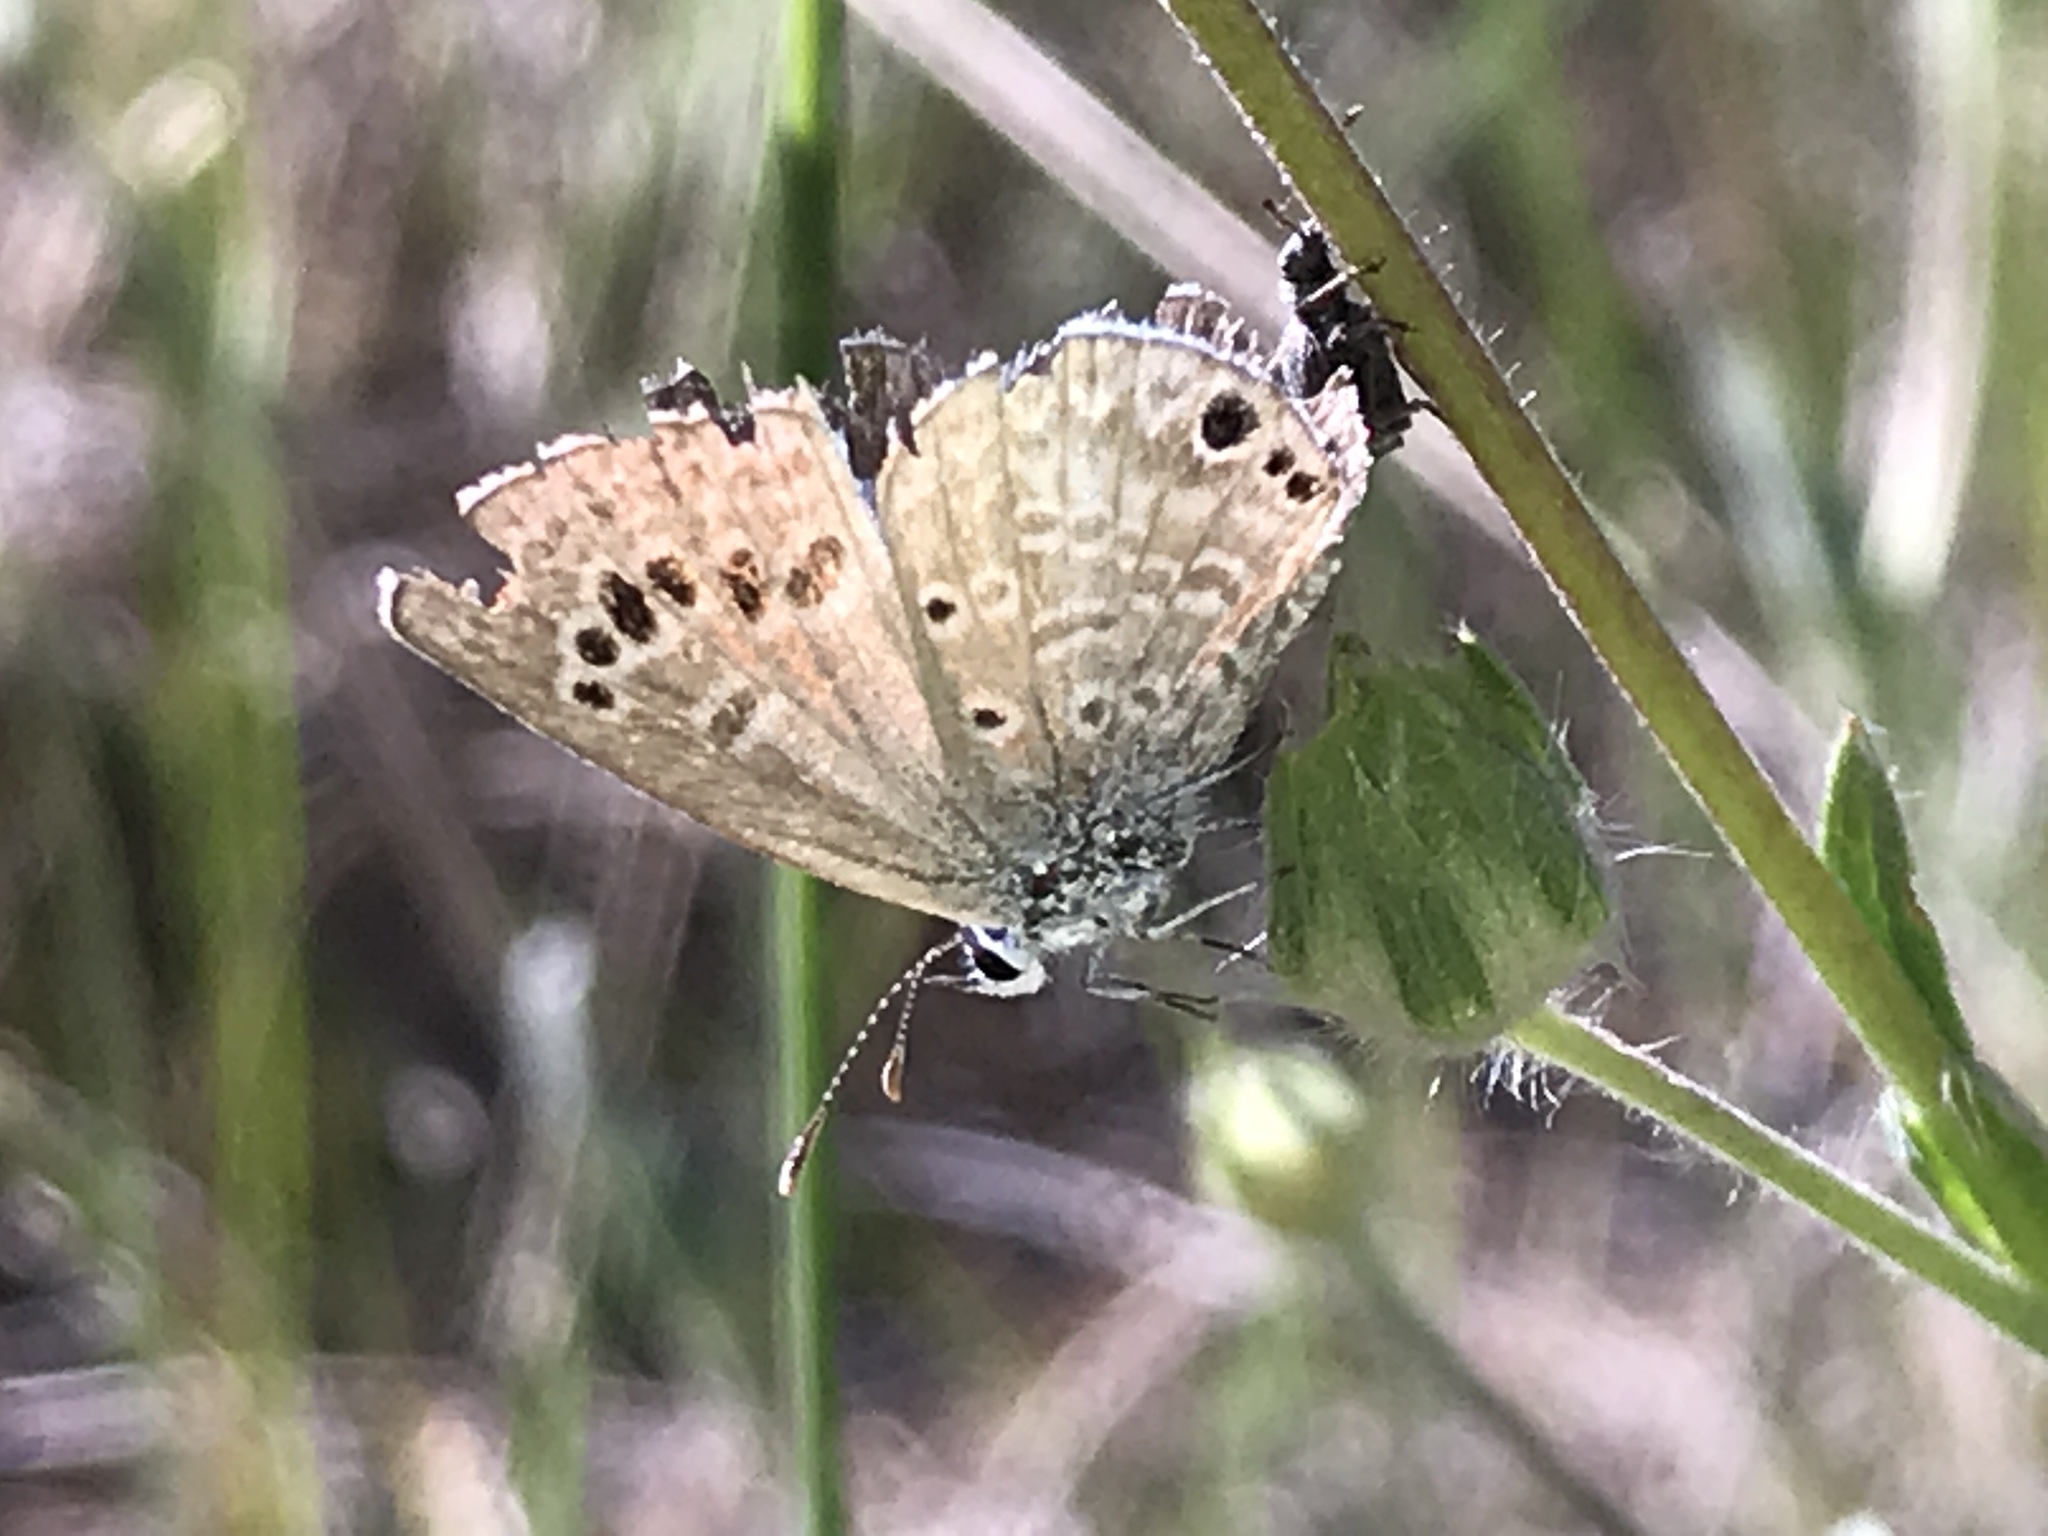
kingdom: Animalia
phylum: Arthropoda
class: Insecta
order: Lepidoptera
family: Lycaenidae
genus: Echinargus
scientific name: Echinargus isola
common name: Reakirt's blue
